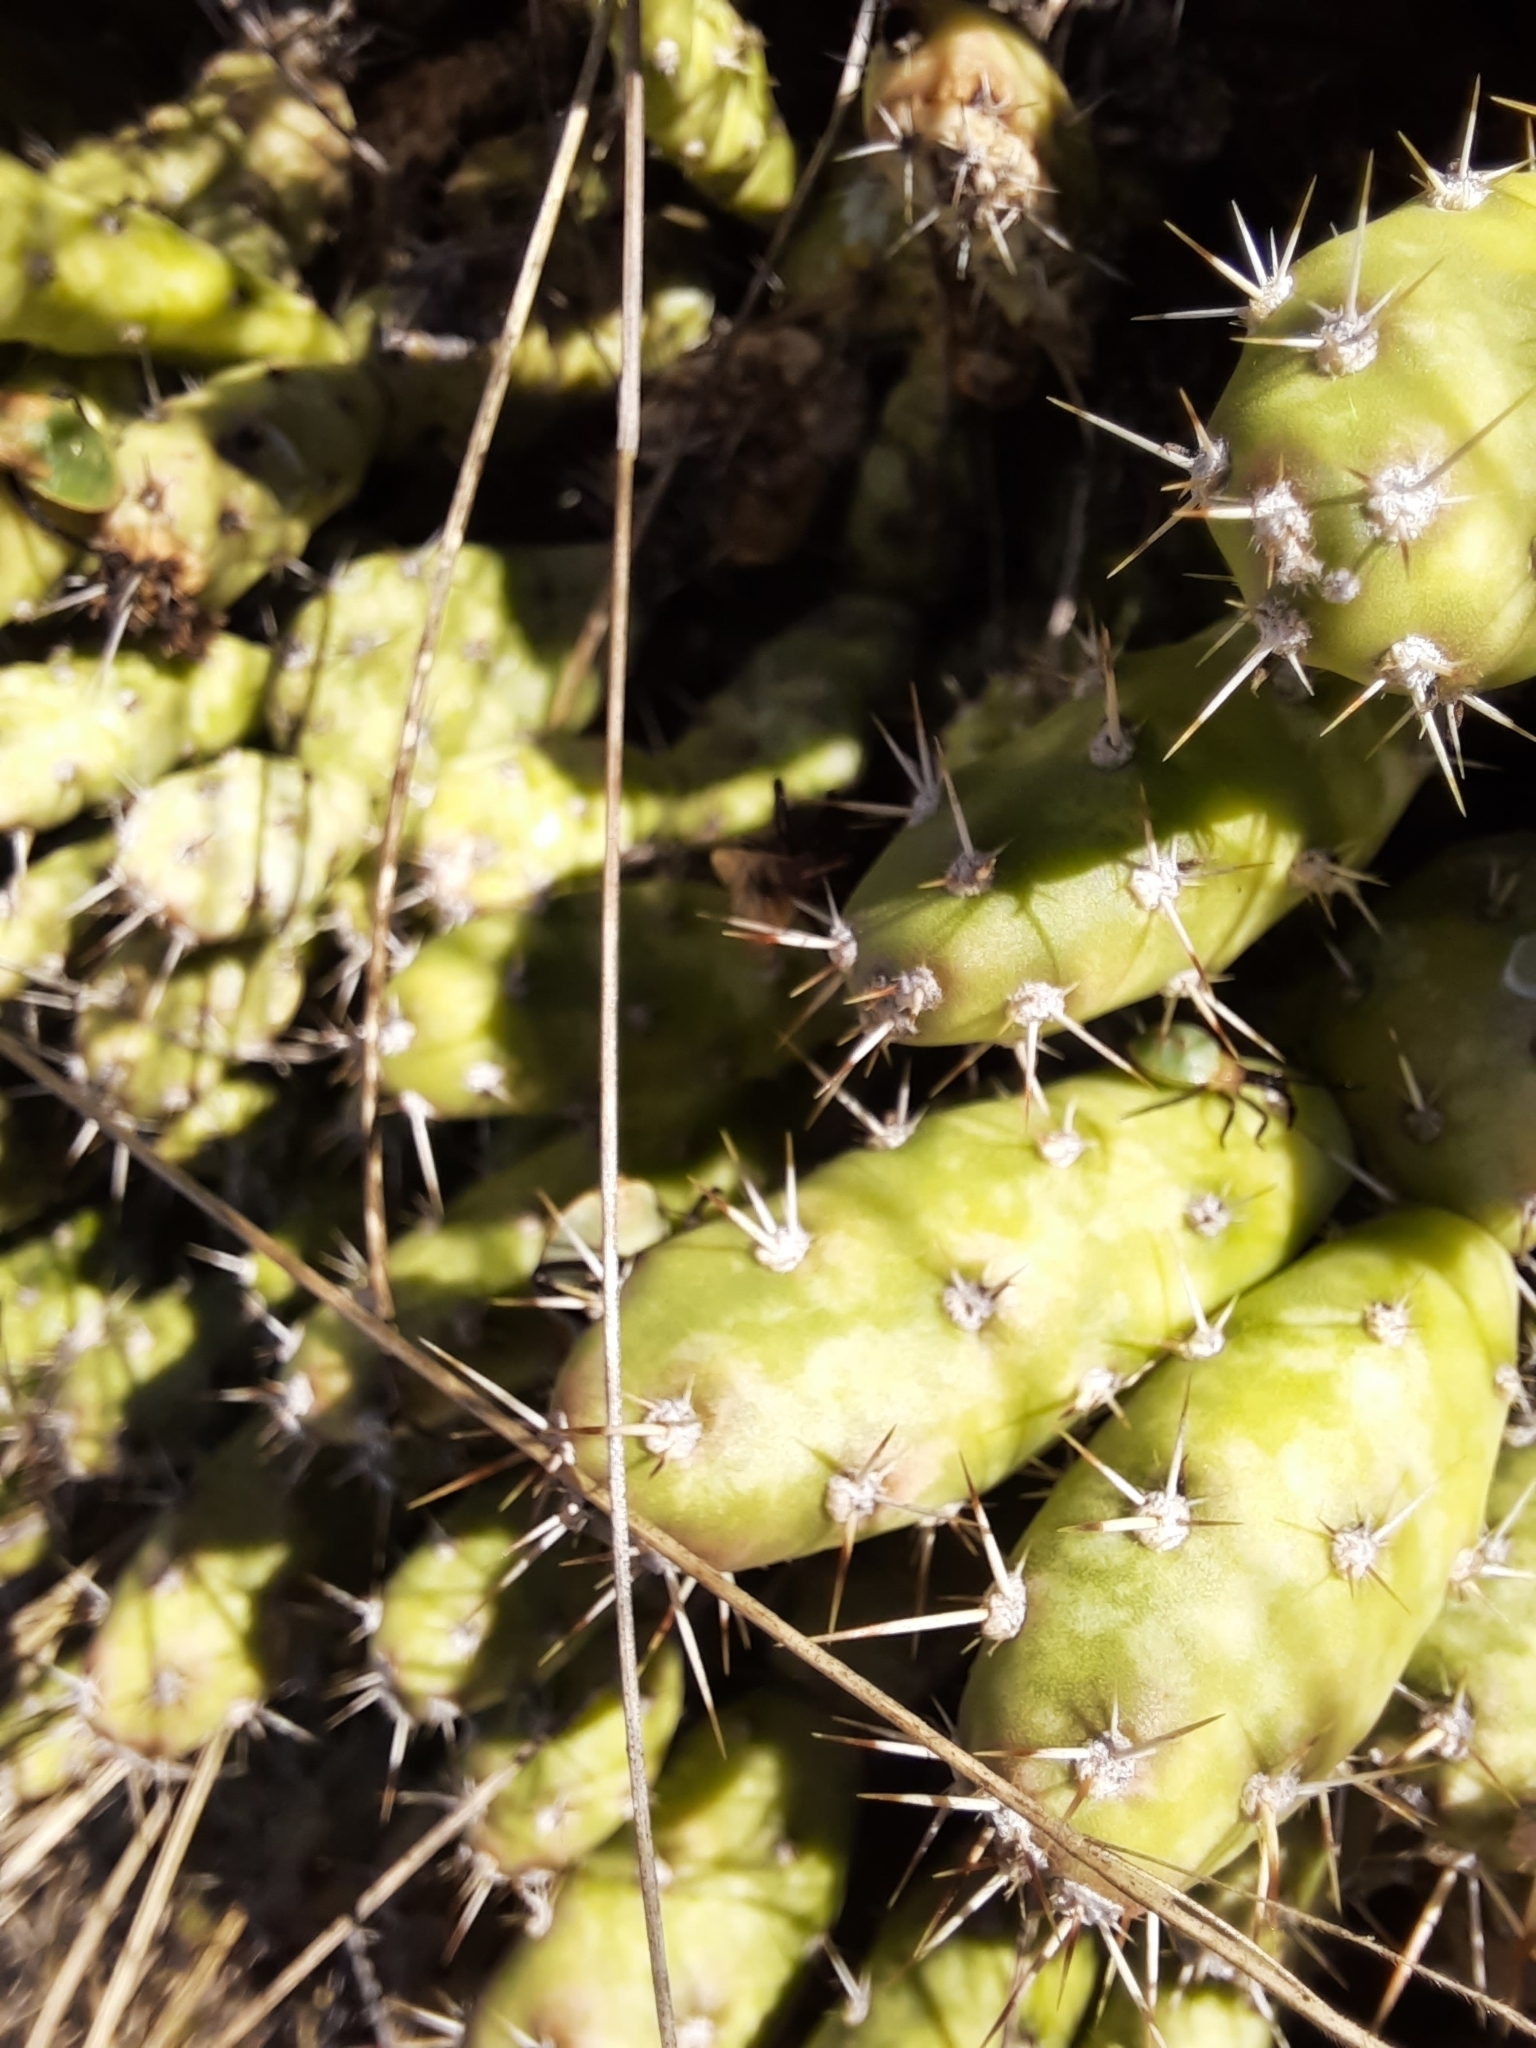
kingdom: Plantae
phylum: Tracheophyta
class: Magnoliopsida
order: Caryophyllales
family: Cactaceae
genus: Opuntia
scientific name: Opuntia fragilis
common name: Brittle cactus
